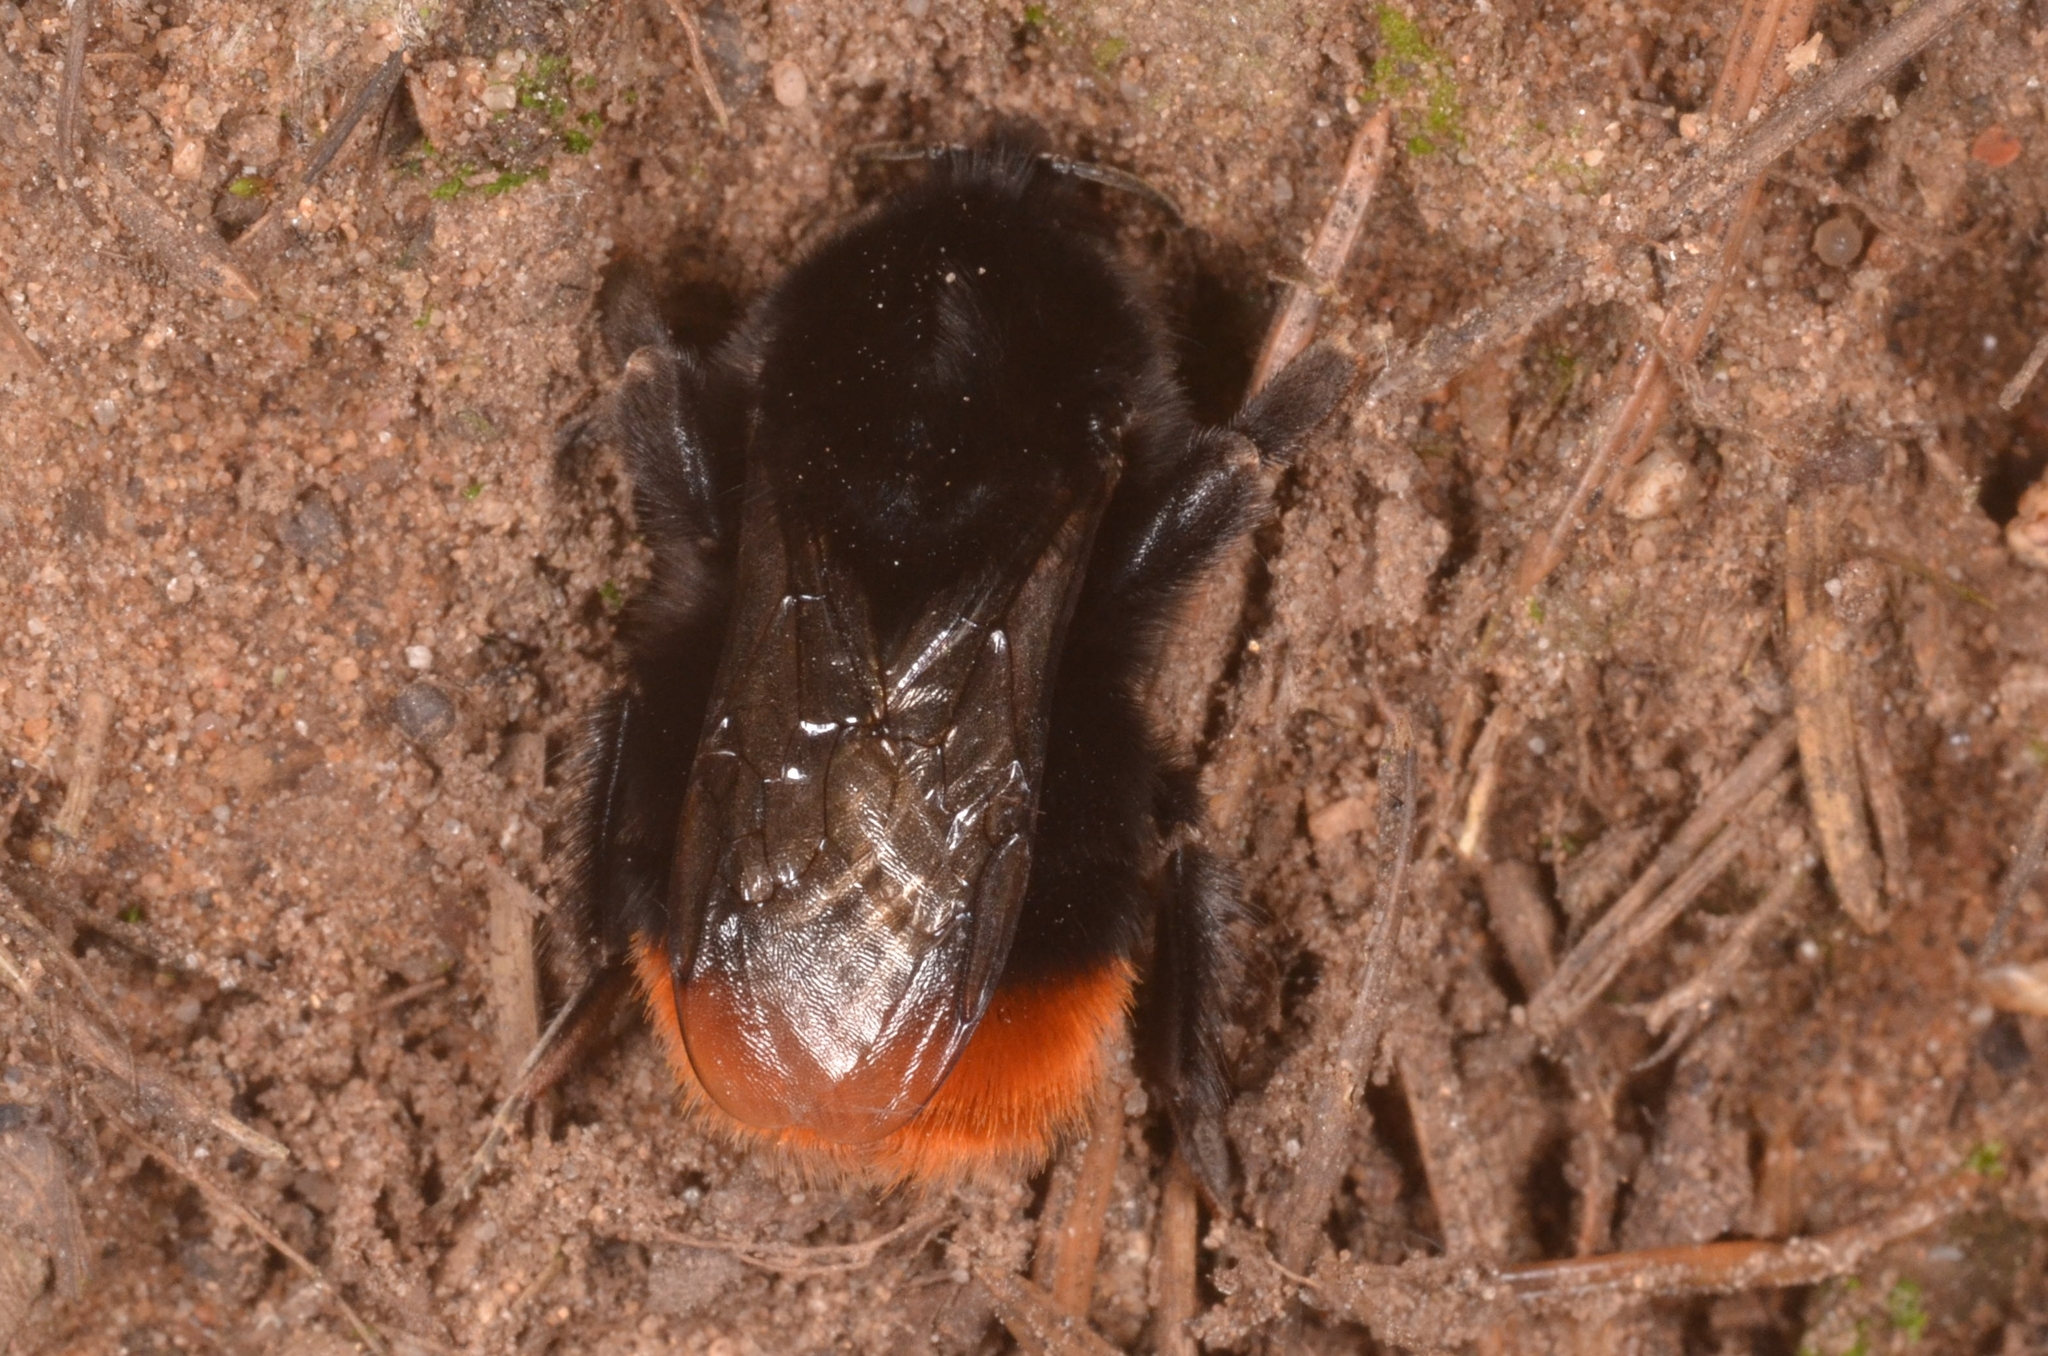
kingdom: Animalia
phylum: Arthropoda
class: Insecta
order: Hymenoptera
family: Apidae
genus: Bombus
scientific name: Bombus lapidarius
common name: Large red-tailed humble-bee
